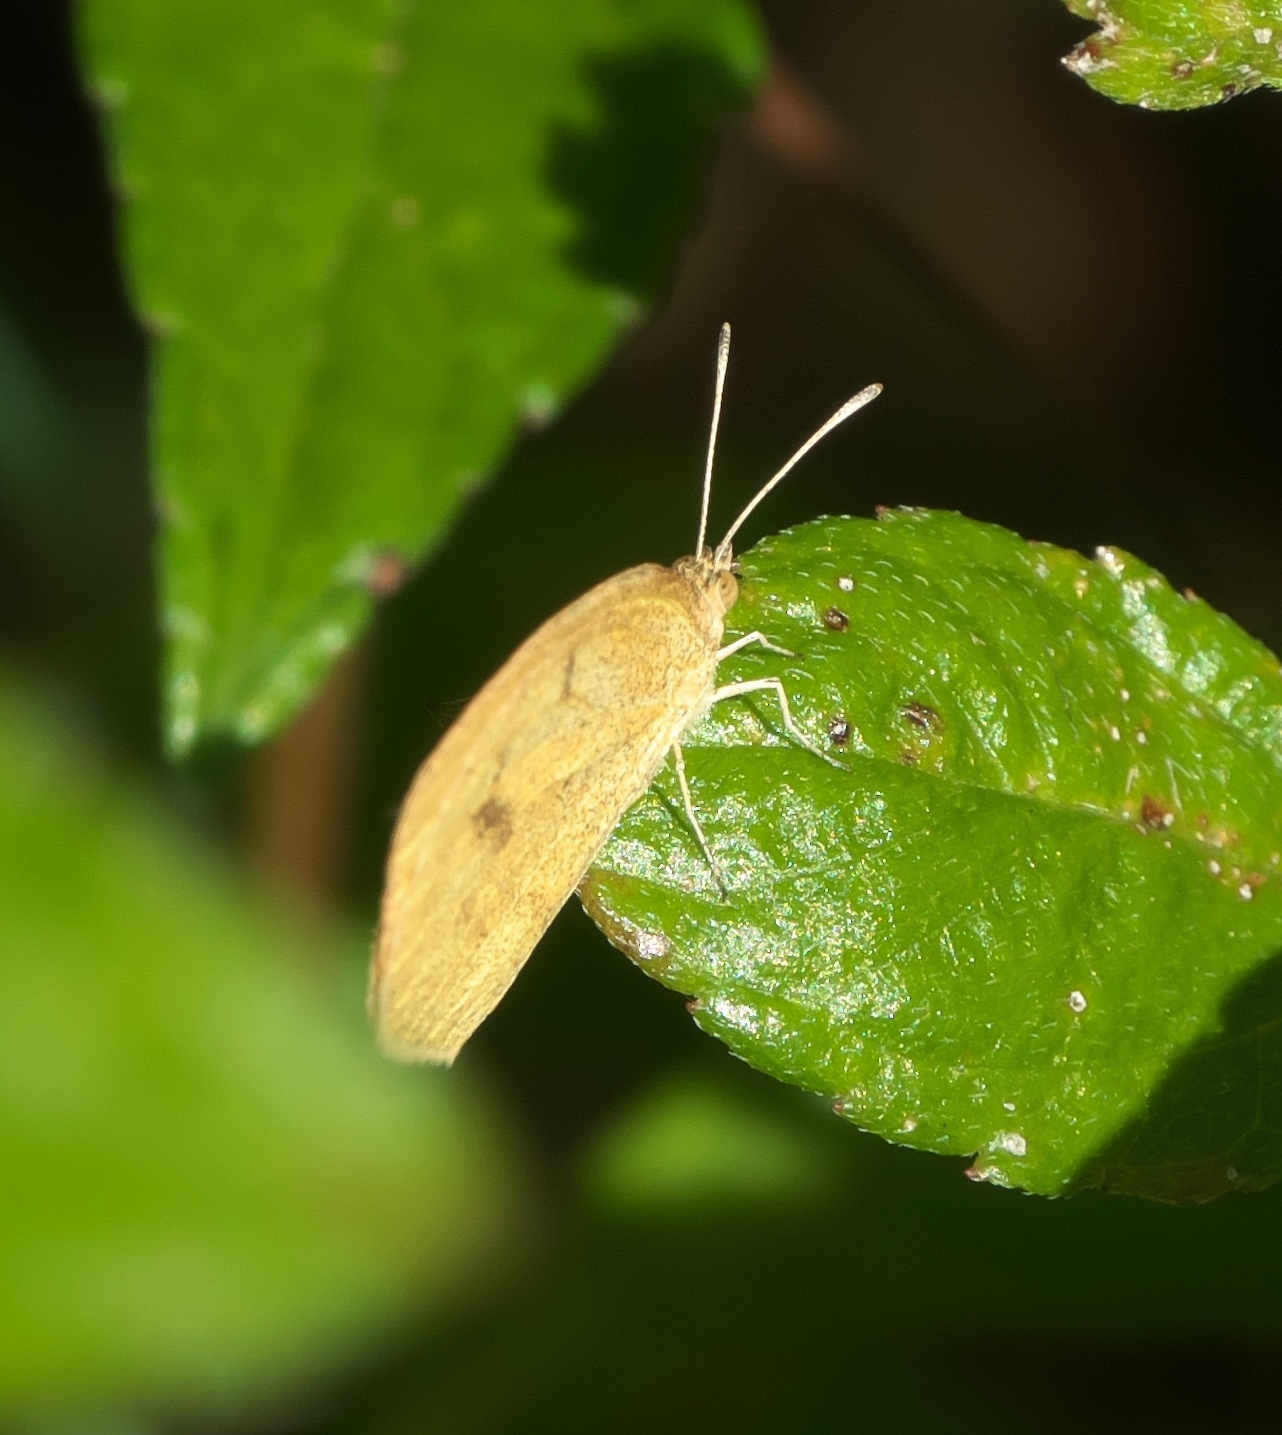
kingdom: Animalia
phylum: Arthropoda
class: Insecta
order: Lepidoptera
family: Pieridae
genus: Eurema
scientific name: Eurema daira
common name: Barred sulphur
